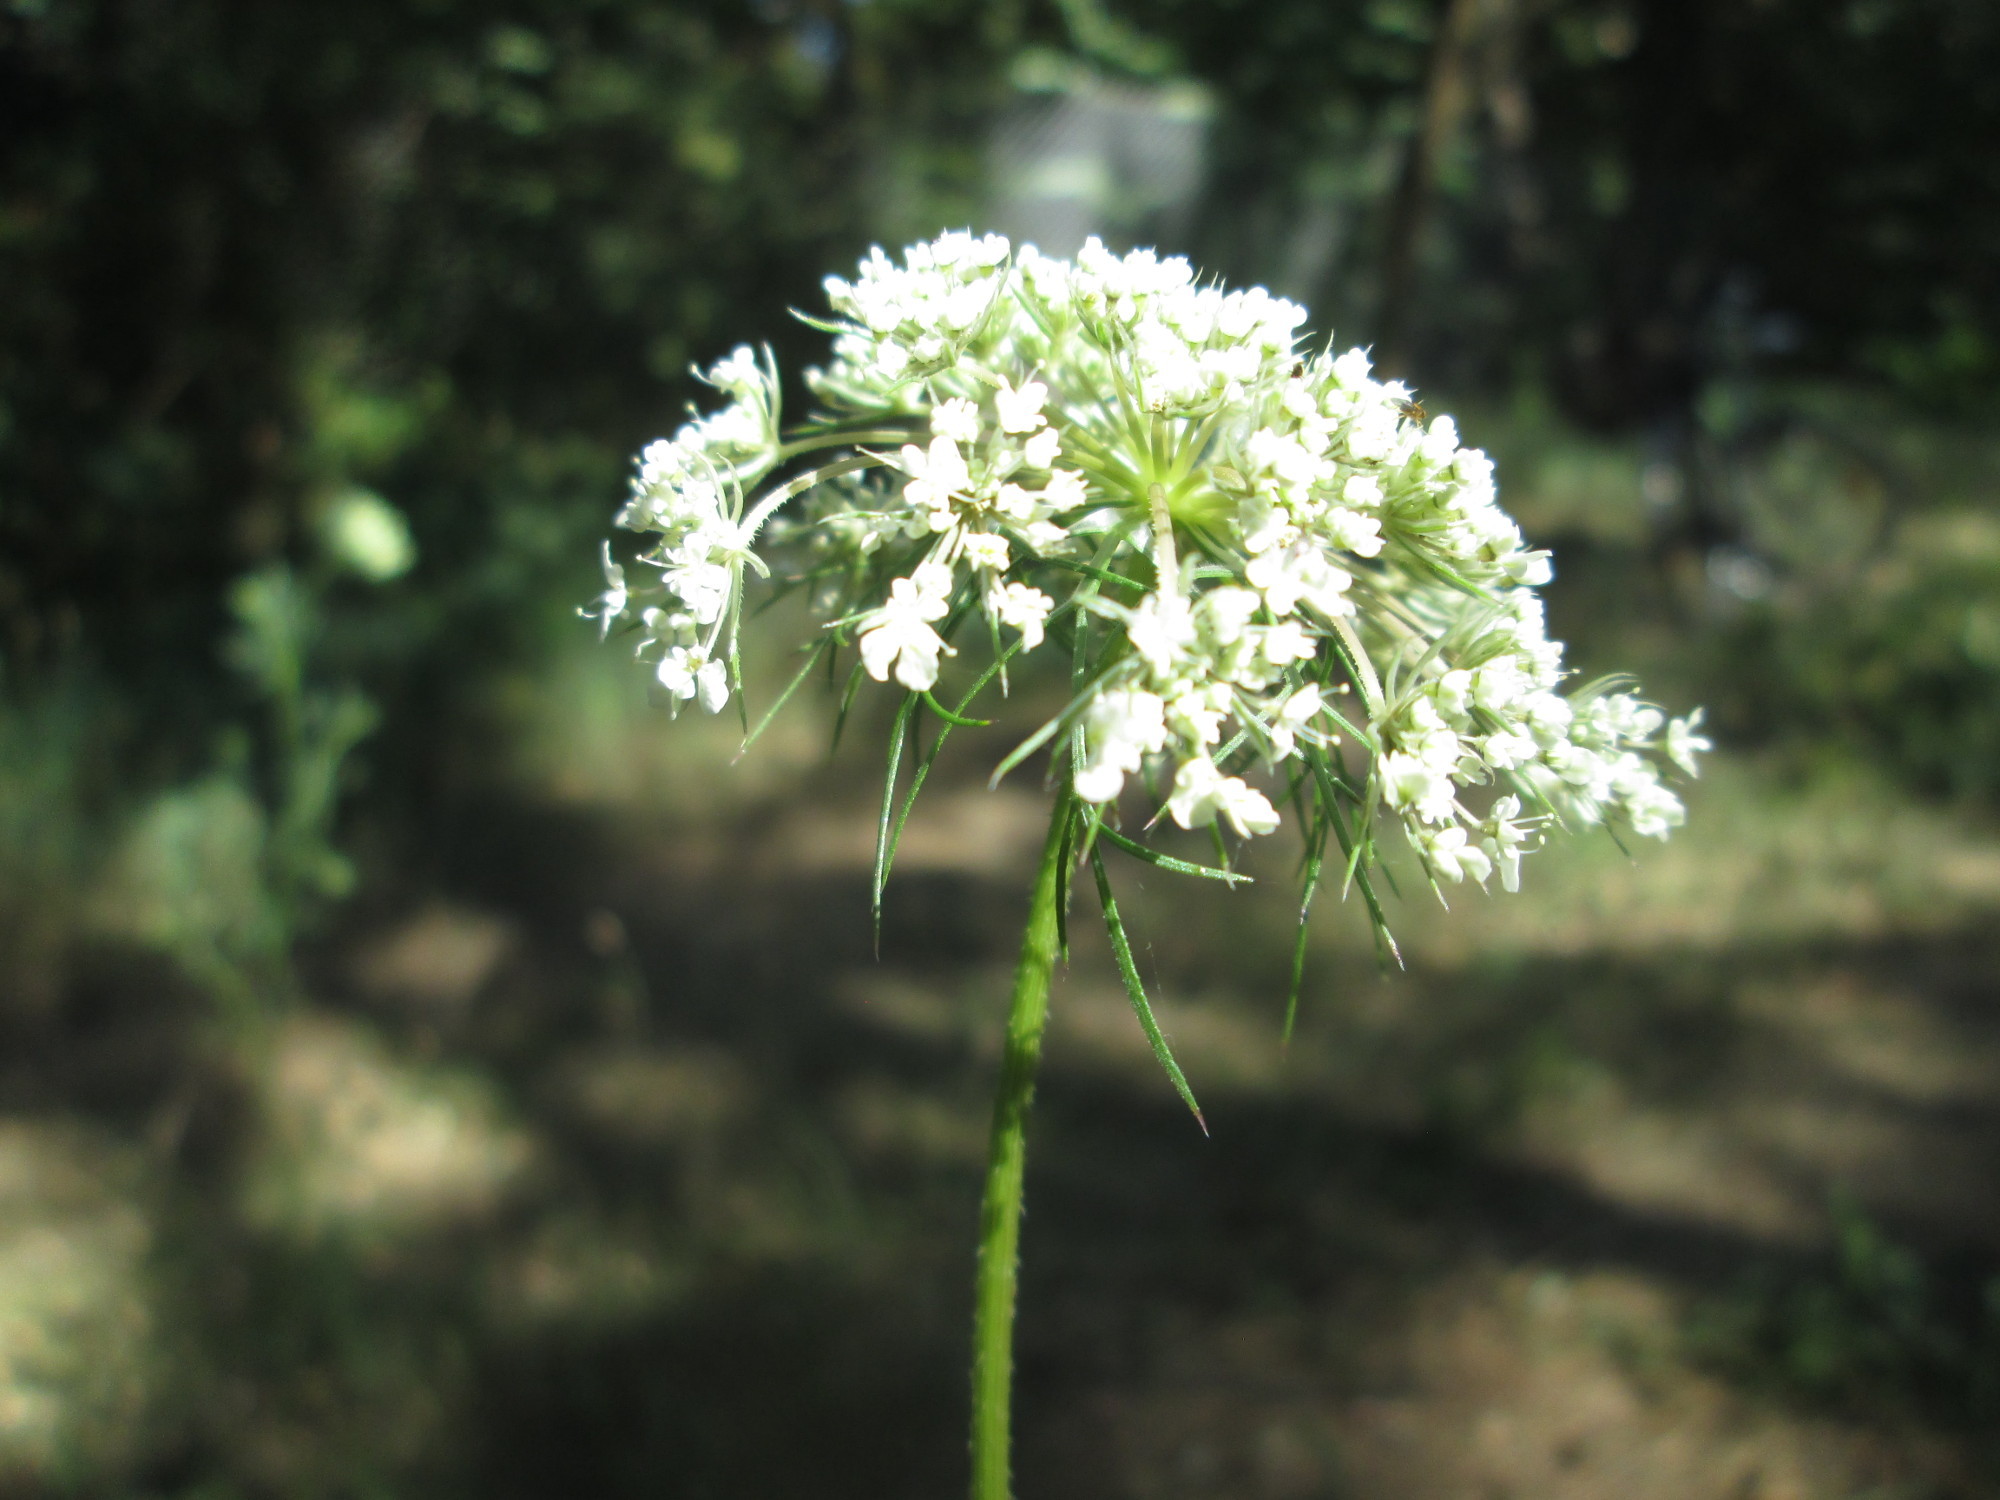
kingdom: Plantae
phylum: Tracheophyta
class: Magnoliopsida
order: Apiales
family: Apiaceae
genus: Daucus
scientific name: Daucus carota
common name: Wild carrot
